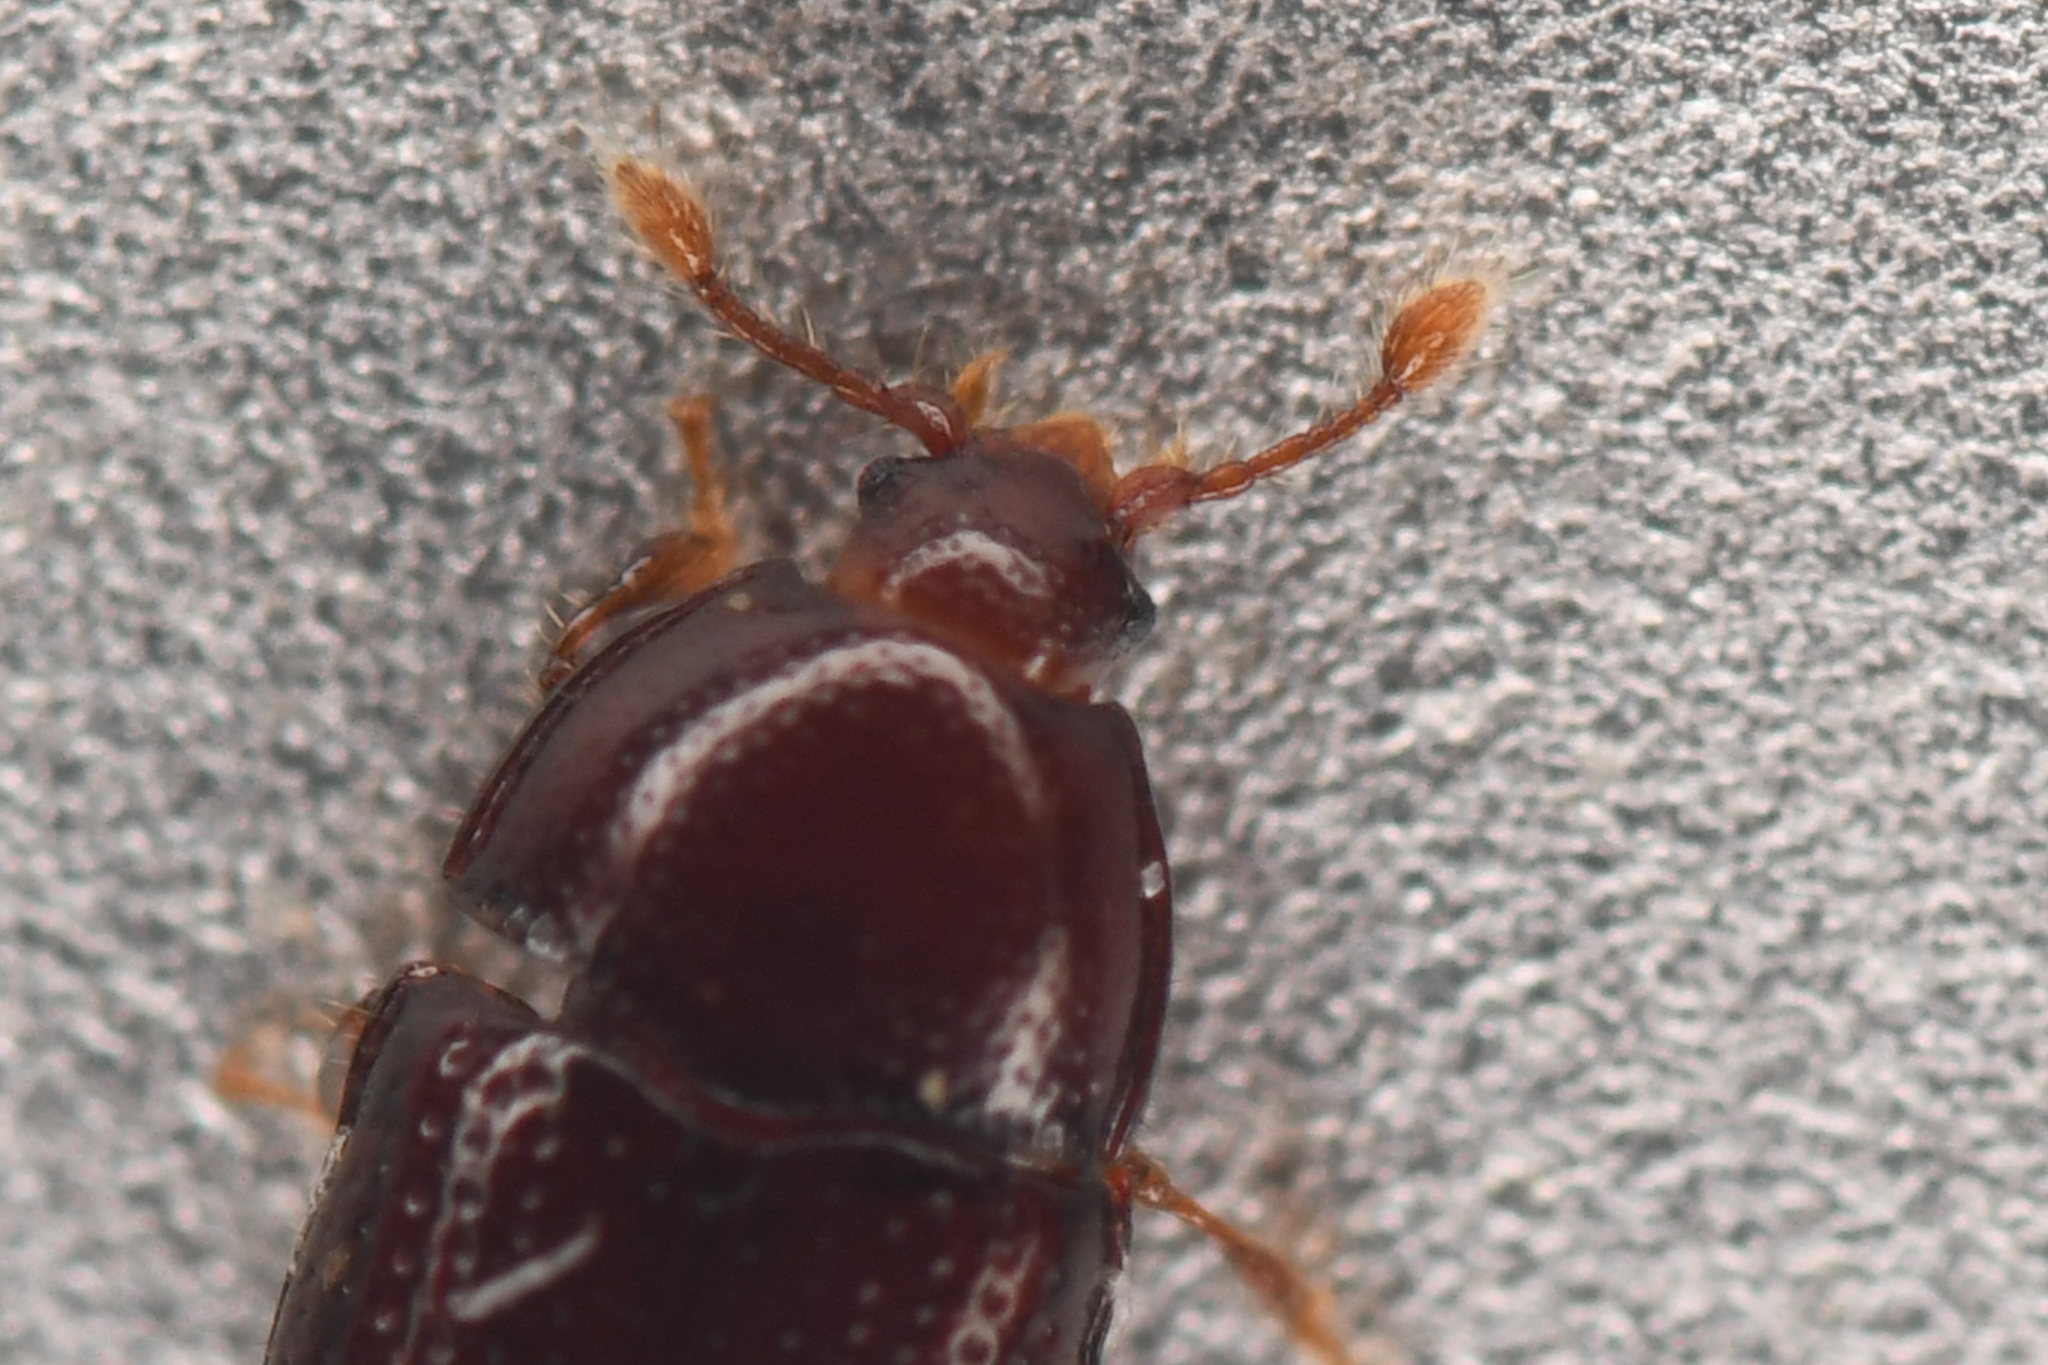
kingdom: Animalia
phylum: Arthropoda
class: Insecta
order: Coleoptera
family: Cerylonidae
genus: Mychocerus
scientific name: Mychocerus discretus
